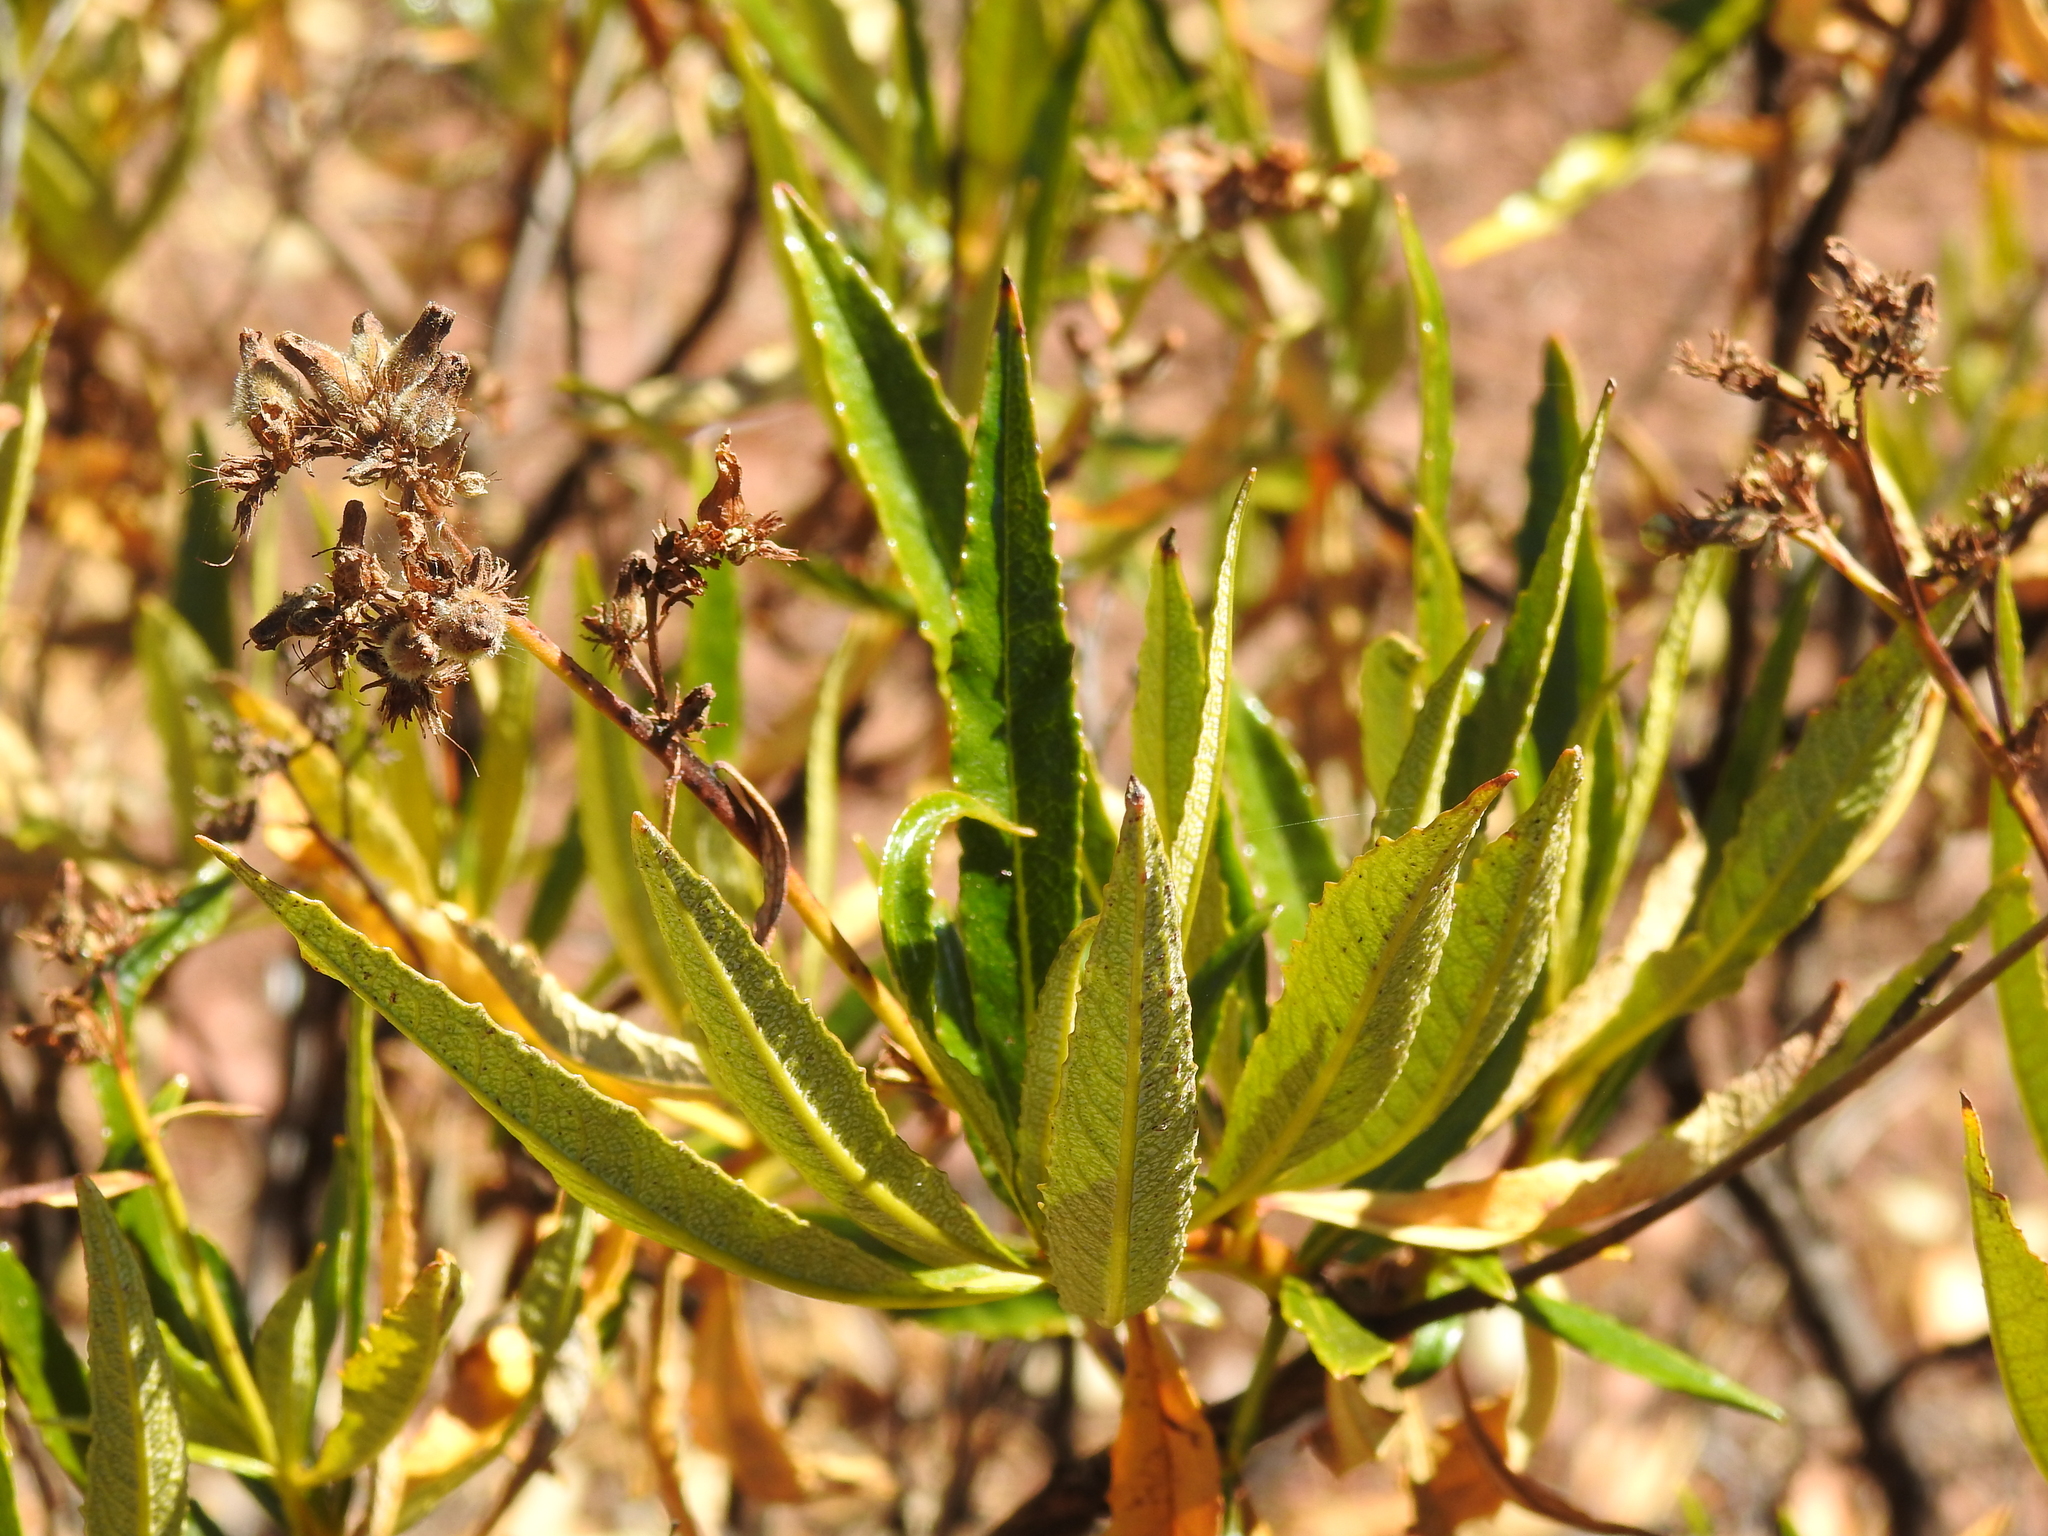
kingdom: Plantae
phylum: Tracheophyta
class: Magnoliopsida
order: Boraginales
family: Namaceae
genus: Eriodictyon
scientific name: Eriodictyon californicum
